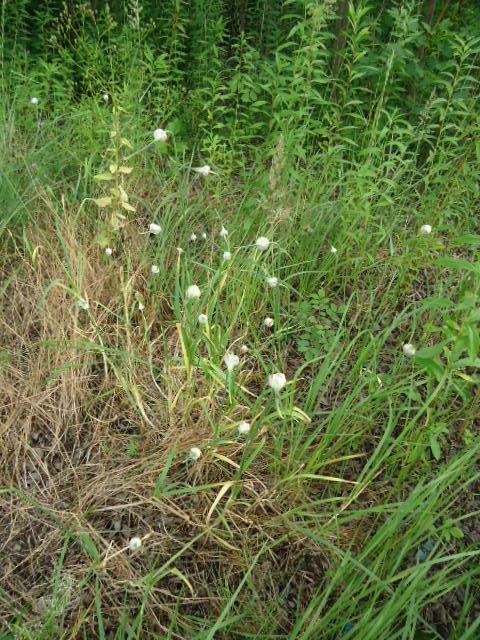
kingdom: Plantae
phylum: Tracheophyta
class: Liliopsida
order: Asparagales
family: Amaryllidaceae
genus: Allium
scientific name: Allium sativum
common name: Garlic
